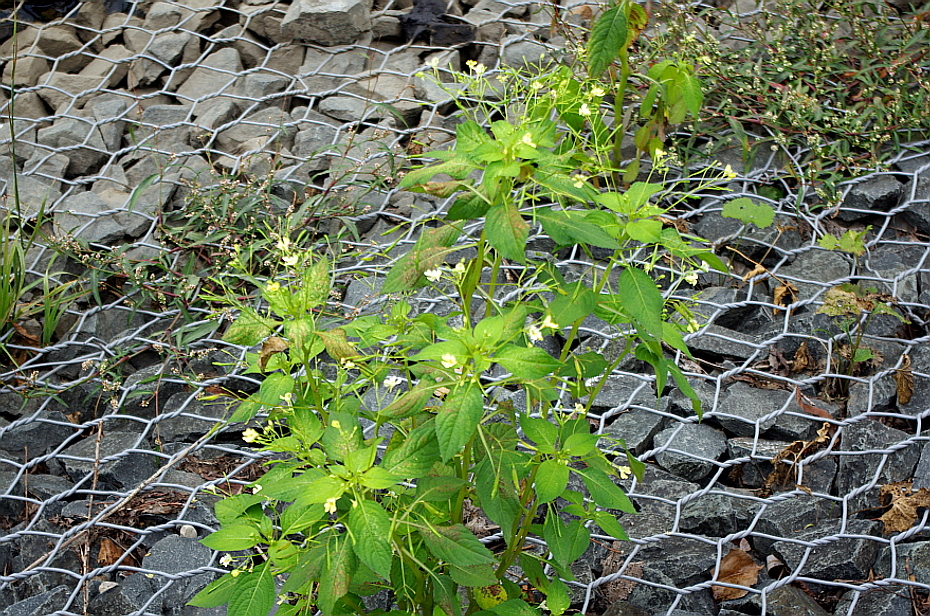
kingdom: Plantae
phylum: Tracheophyta
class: Magnoliopsida
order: Ericales
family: Balsaminaceae
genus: Impatiens
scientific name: Impatiens parviflora
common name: Small balsam
